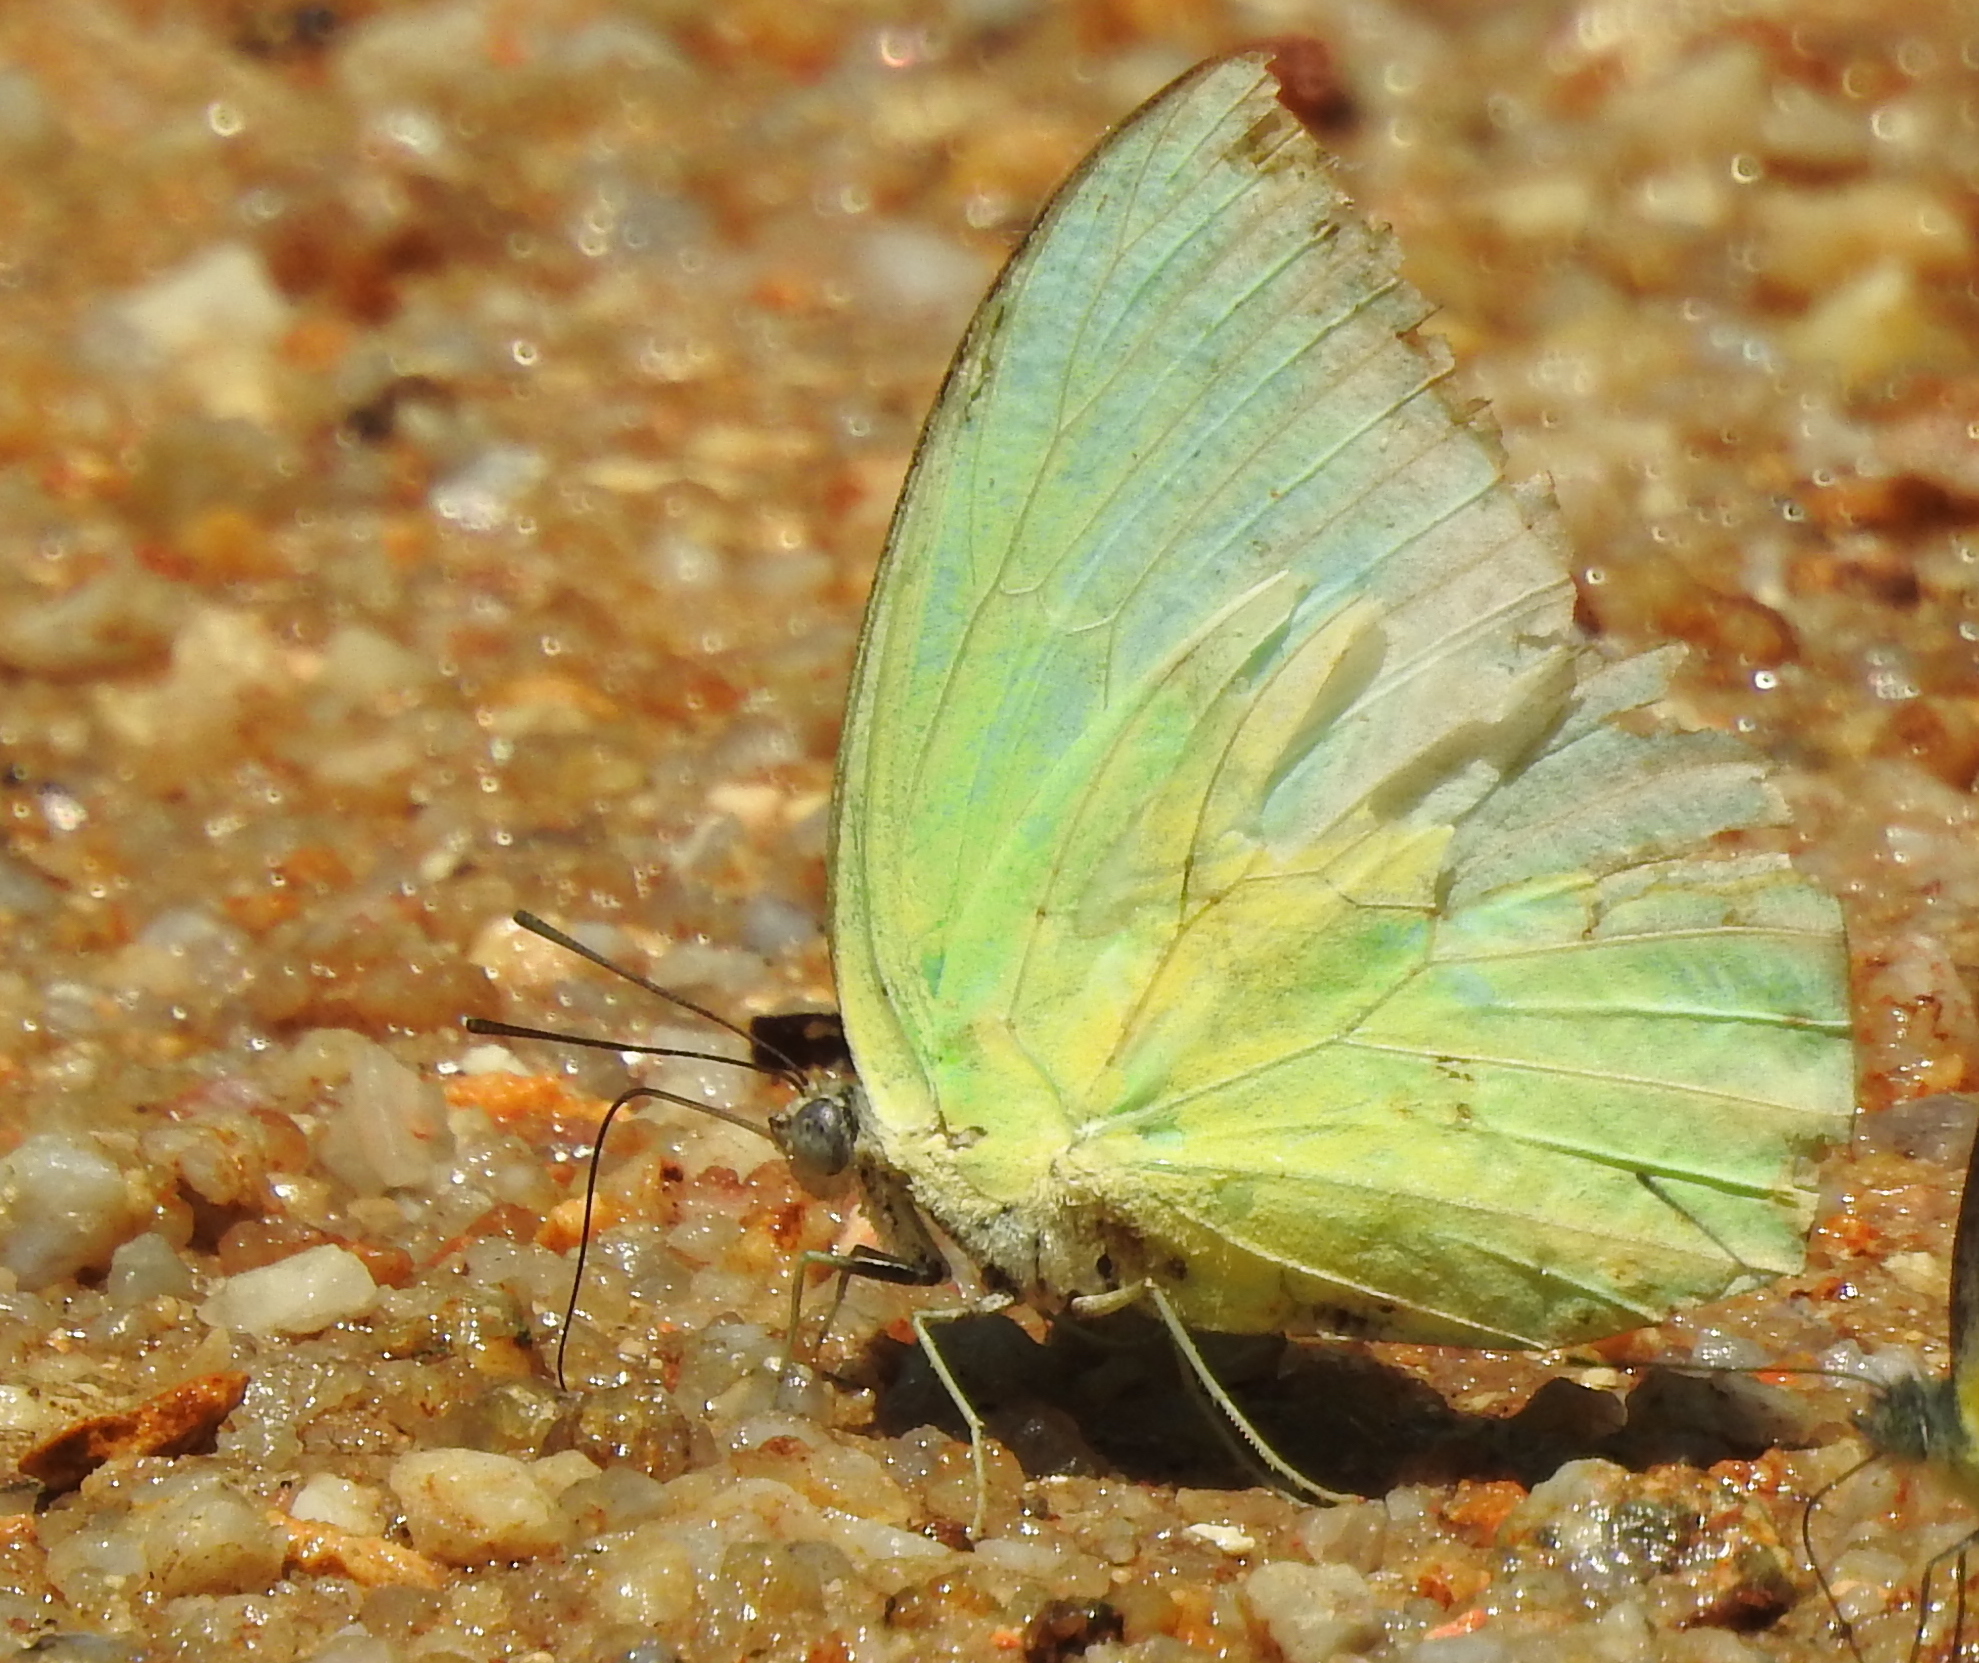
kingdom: Animalia
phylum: Arthropoda
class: Insecta
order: Lepidoptera
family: Pieridae
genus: Catopsilia
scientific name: Catopsilia pomona
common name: Common emigrant
